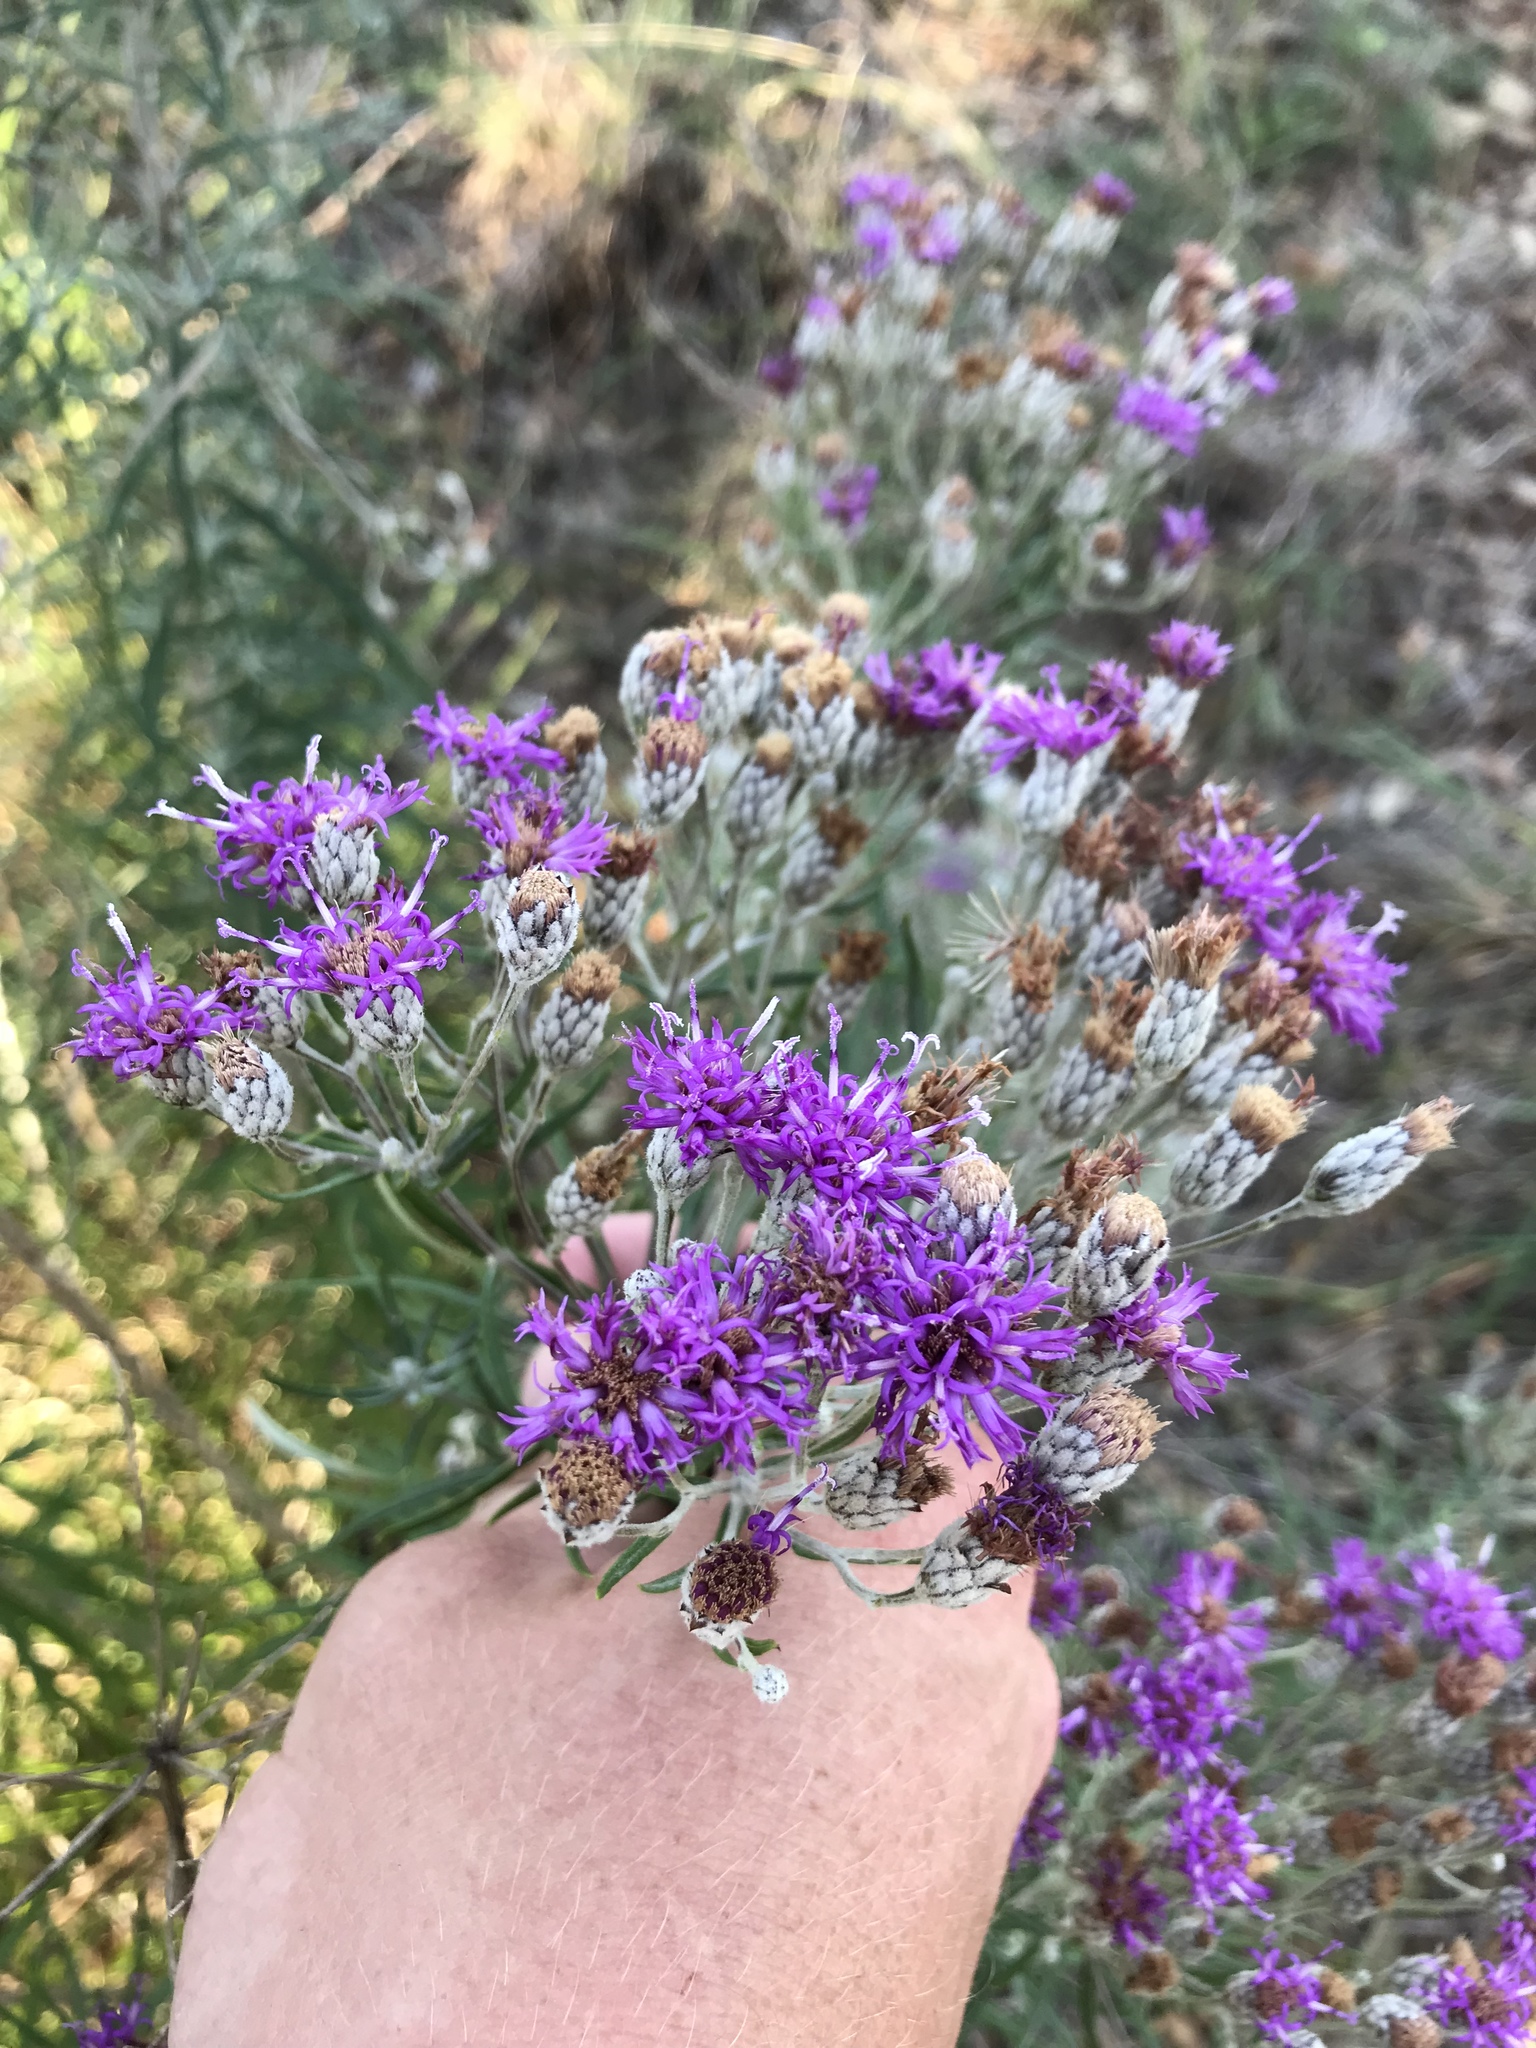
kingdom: Plantae
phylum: Tracheophyta
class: Magnoliopsida
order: Asterales
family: Asteraceae
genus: Vernonia
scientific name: Vernonia lindheimeri
